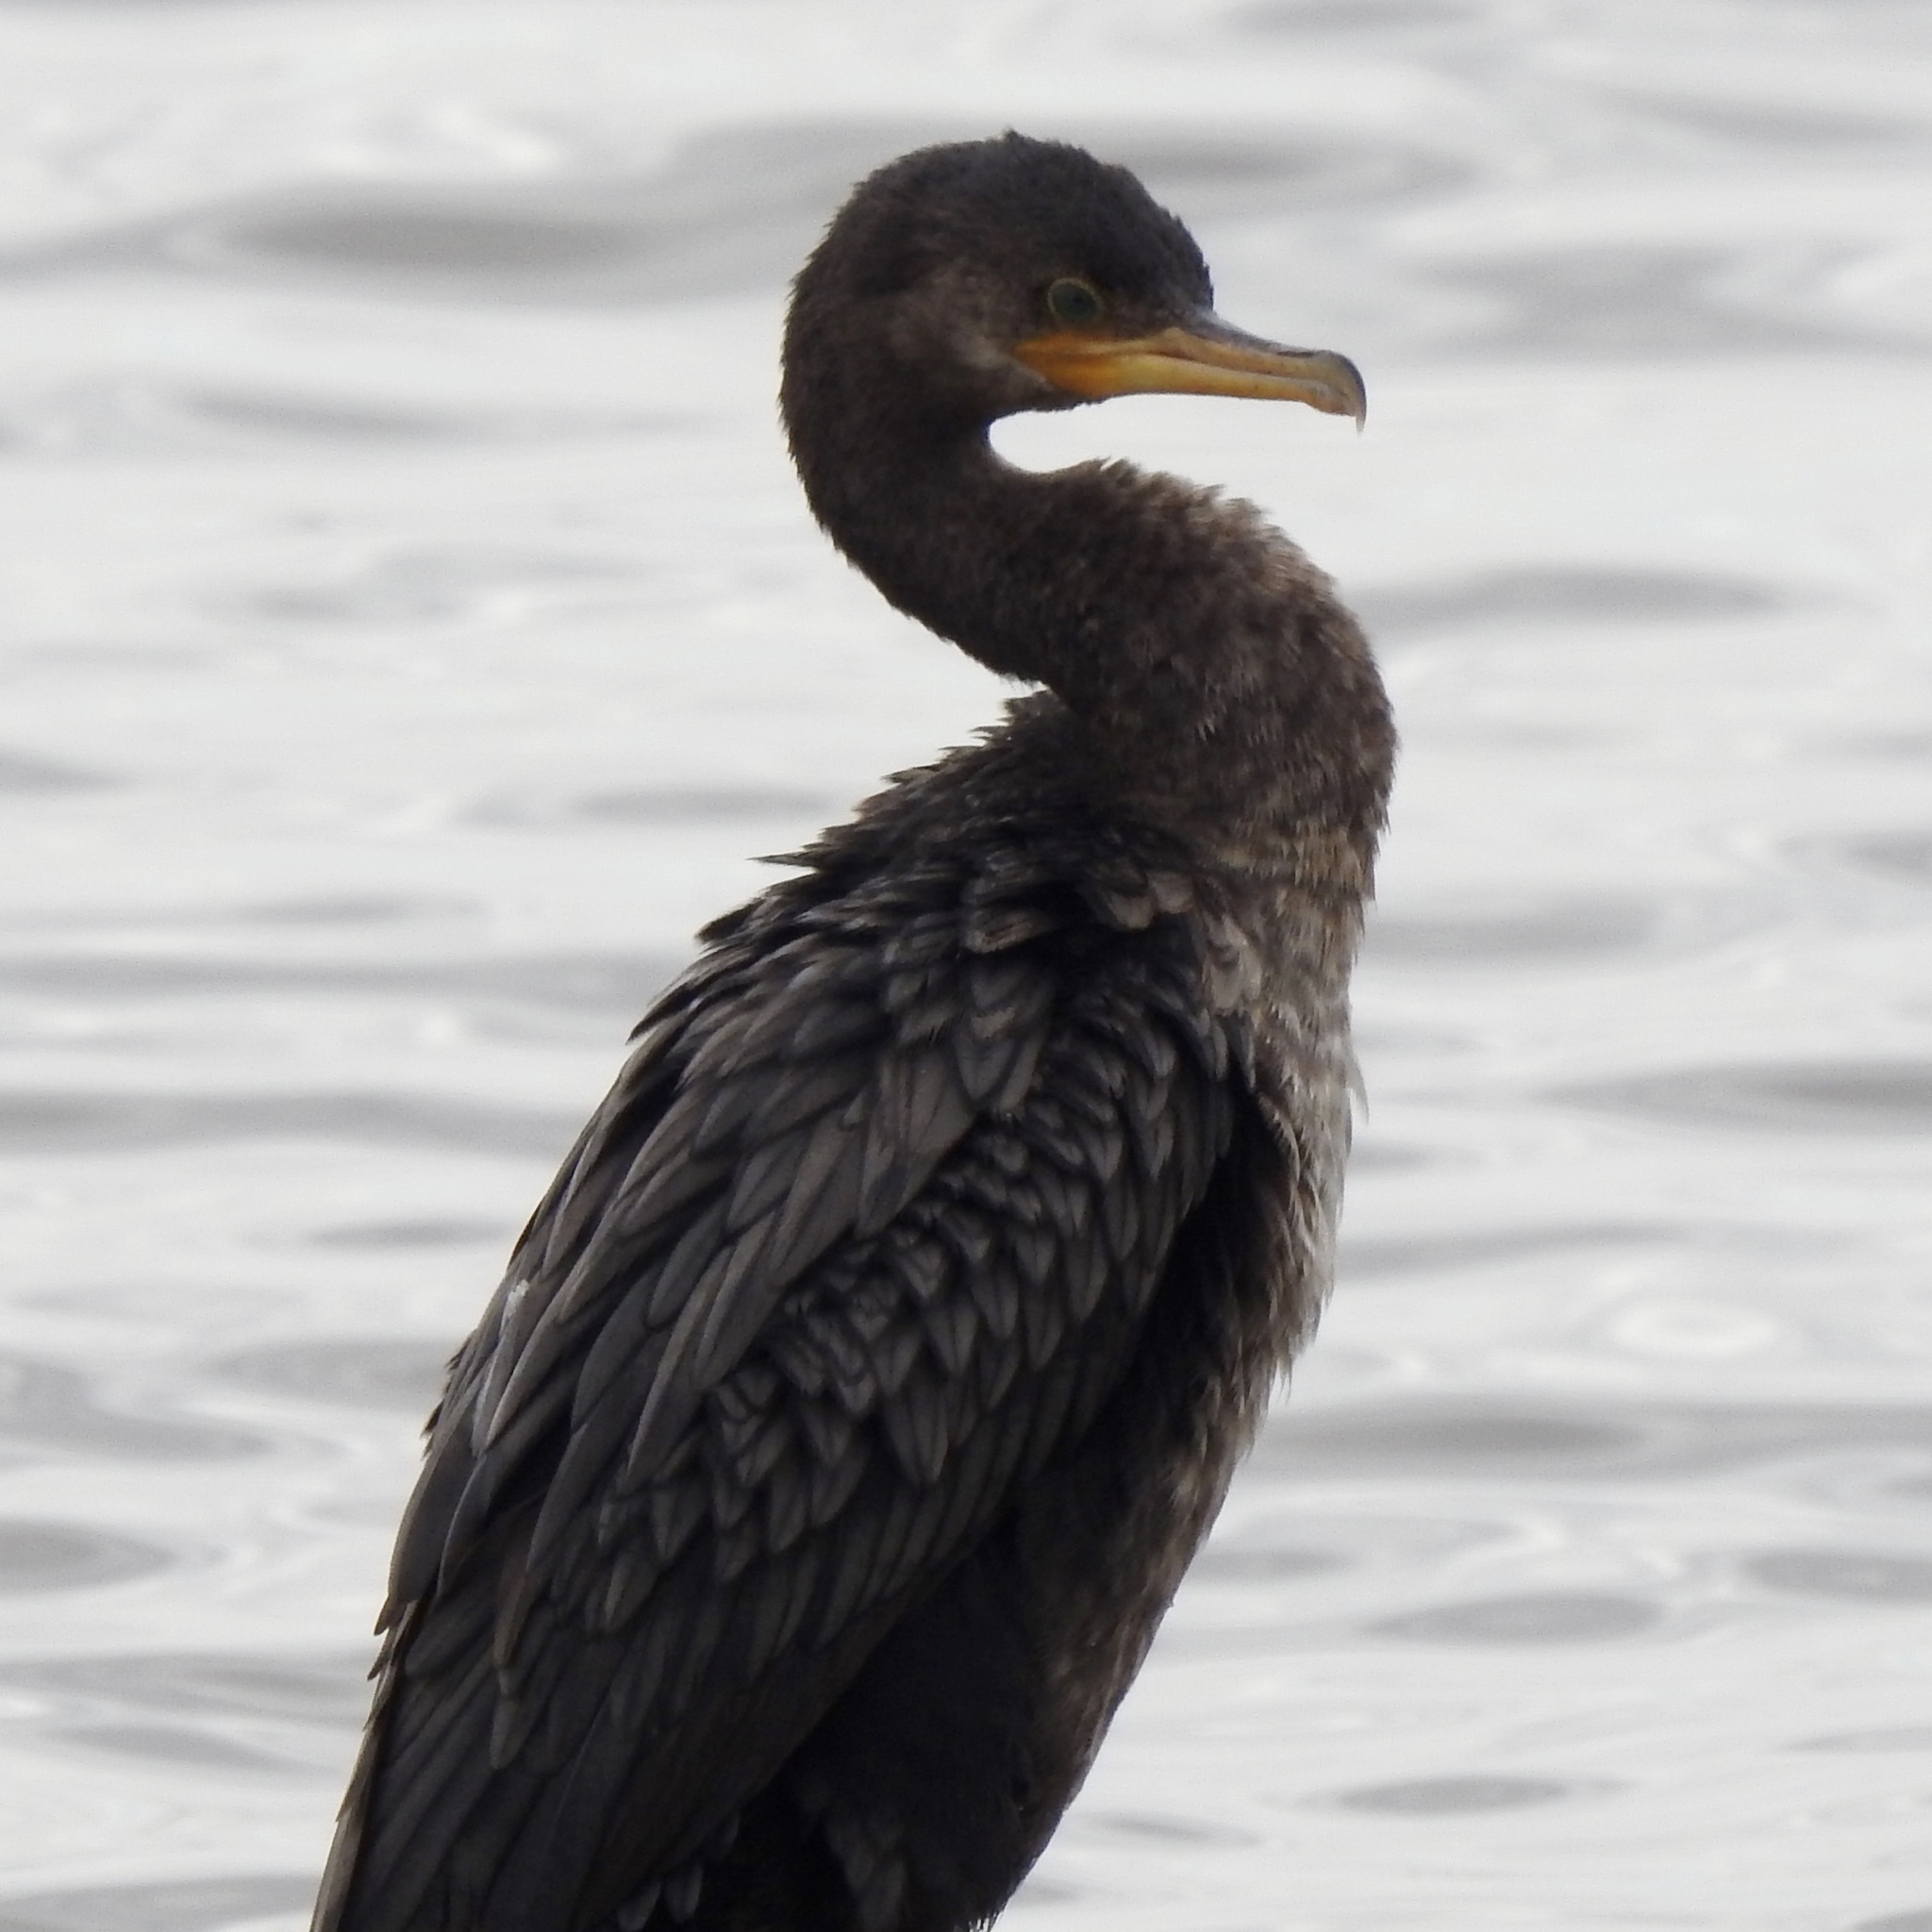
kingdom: Animalia
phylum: Chordata
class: Aves
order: Suliformes
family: Phalacrocoracidae
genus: Phalacrocorax
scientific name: Phalacrocorax brasilianus
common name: Neotropic cormorant
